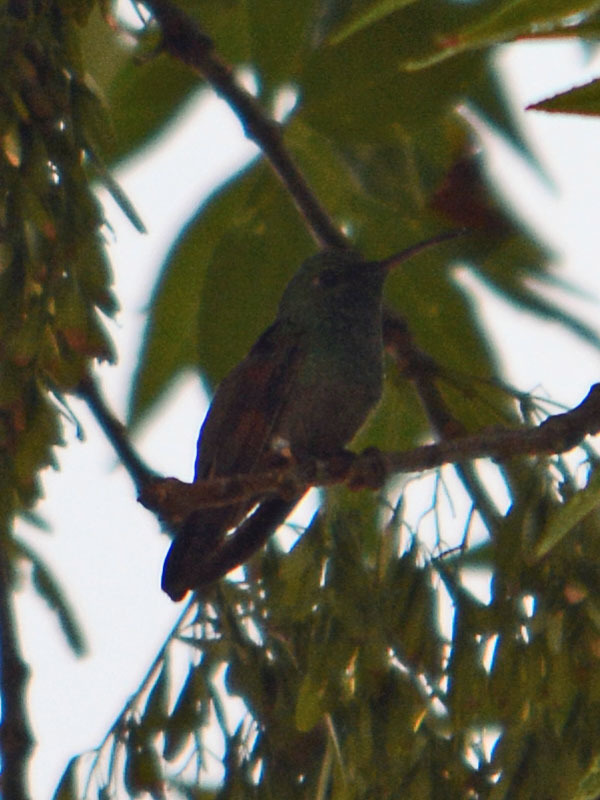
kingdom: Animalia
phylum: Chordata
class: Aves
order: Apodiformes
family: Trochilidae
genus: Saucerottia
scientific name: Saucerottia beryllina
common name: Berylline hummingbird
